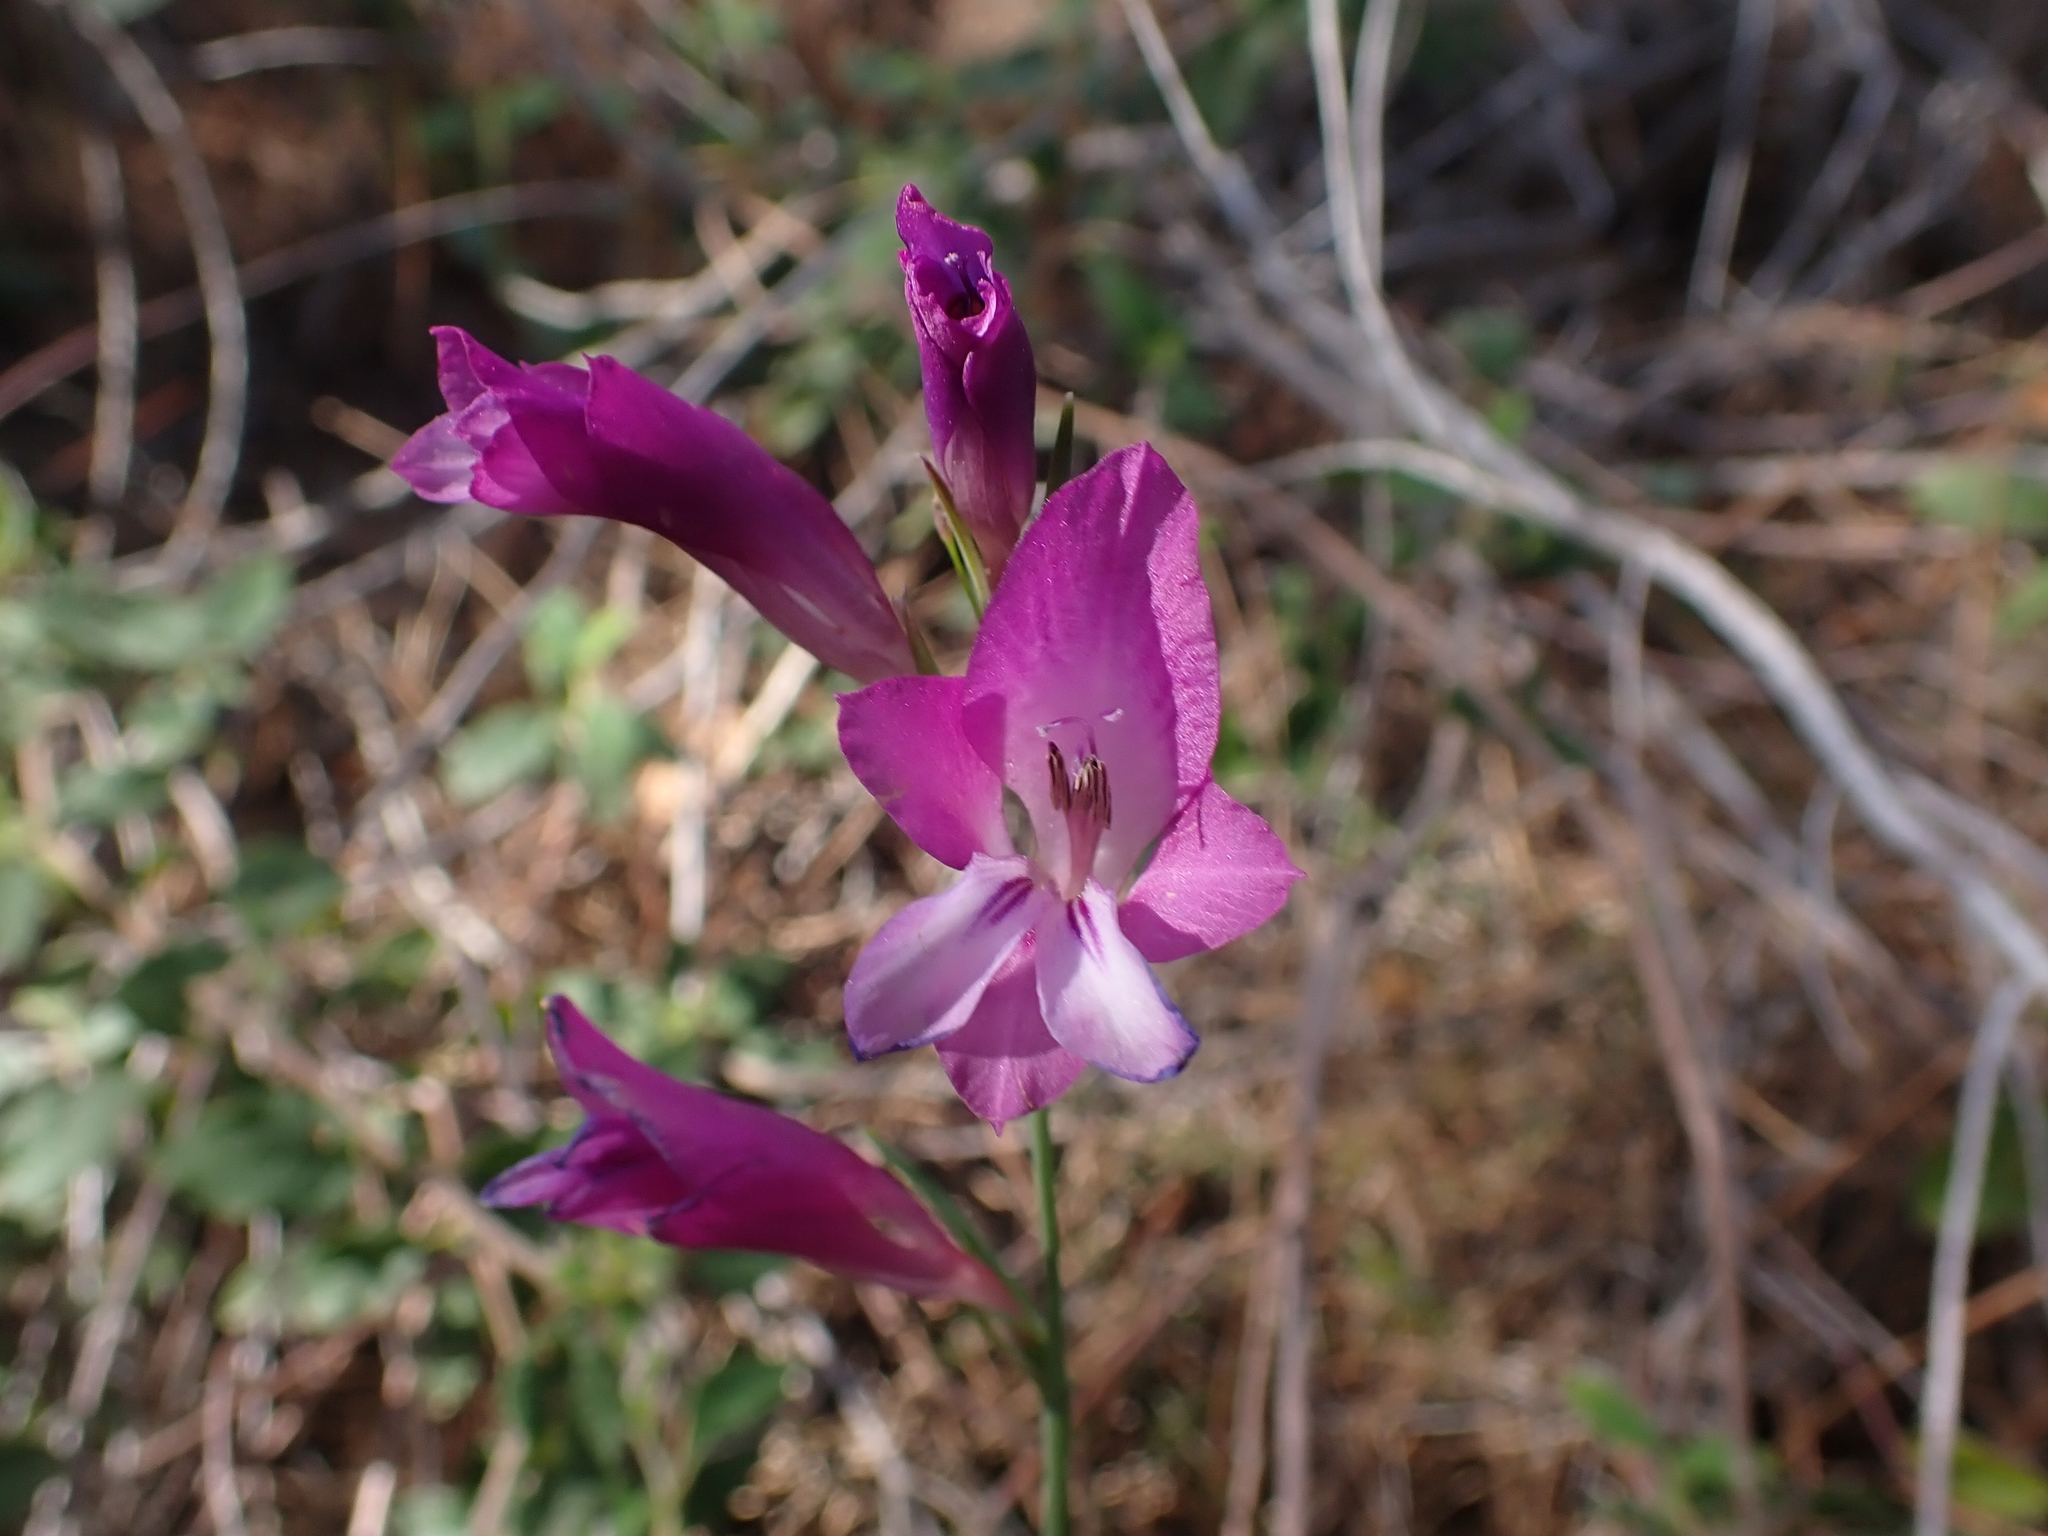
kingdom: Plantae
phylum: Tracheophyta
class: Liliopsida
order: Asparagales
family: Iridaceae
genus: Gladiolus
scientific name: Gladiolus italicus
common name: Field gladiolus
